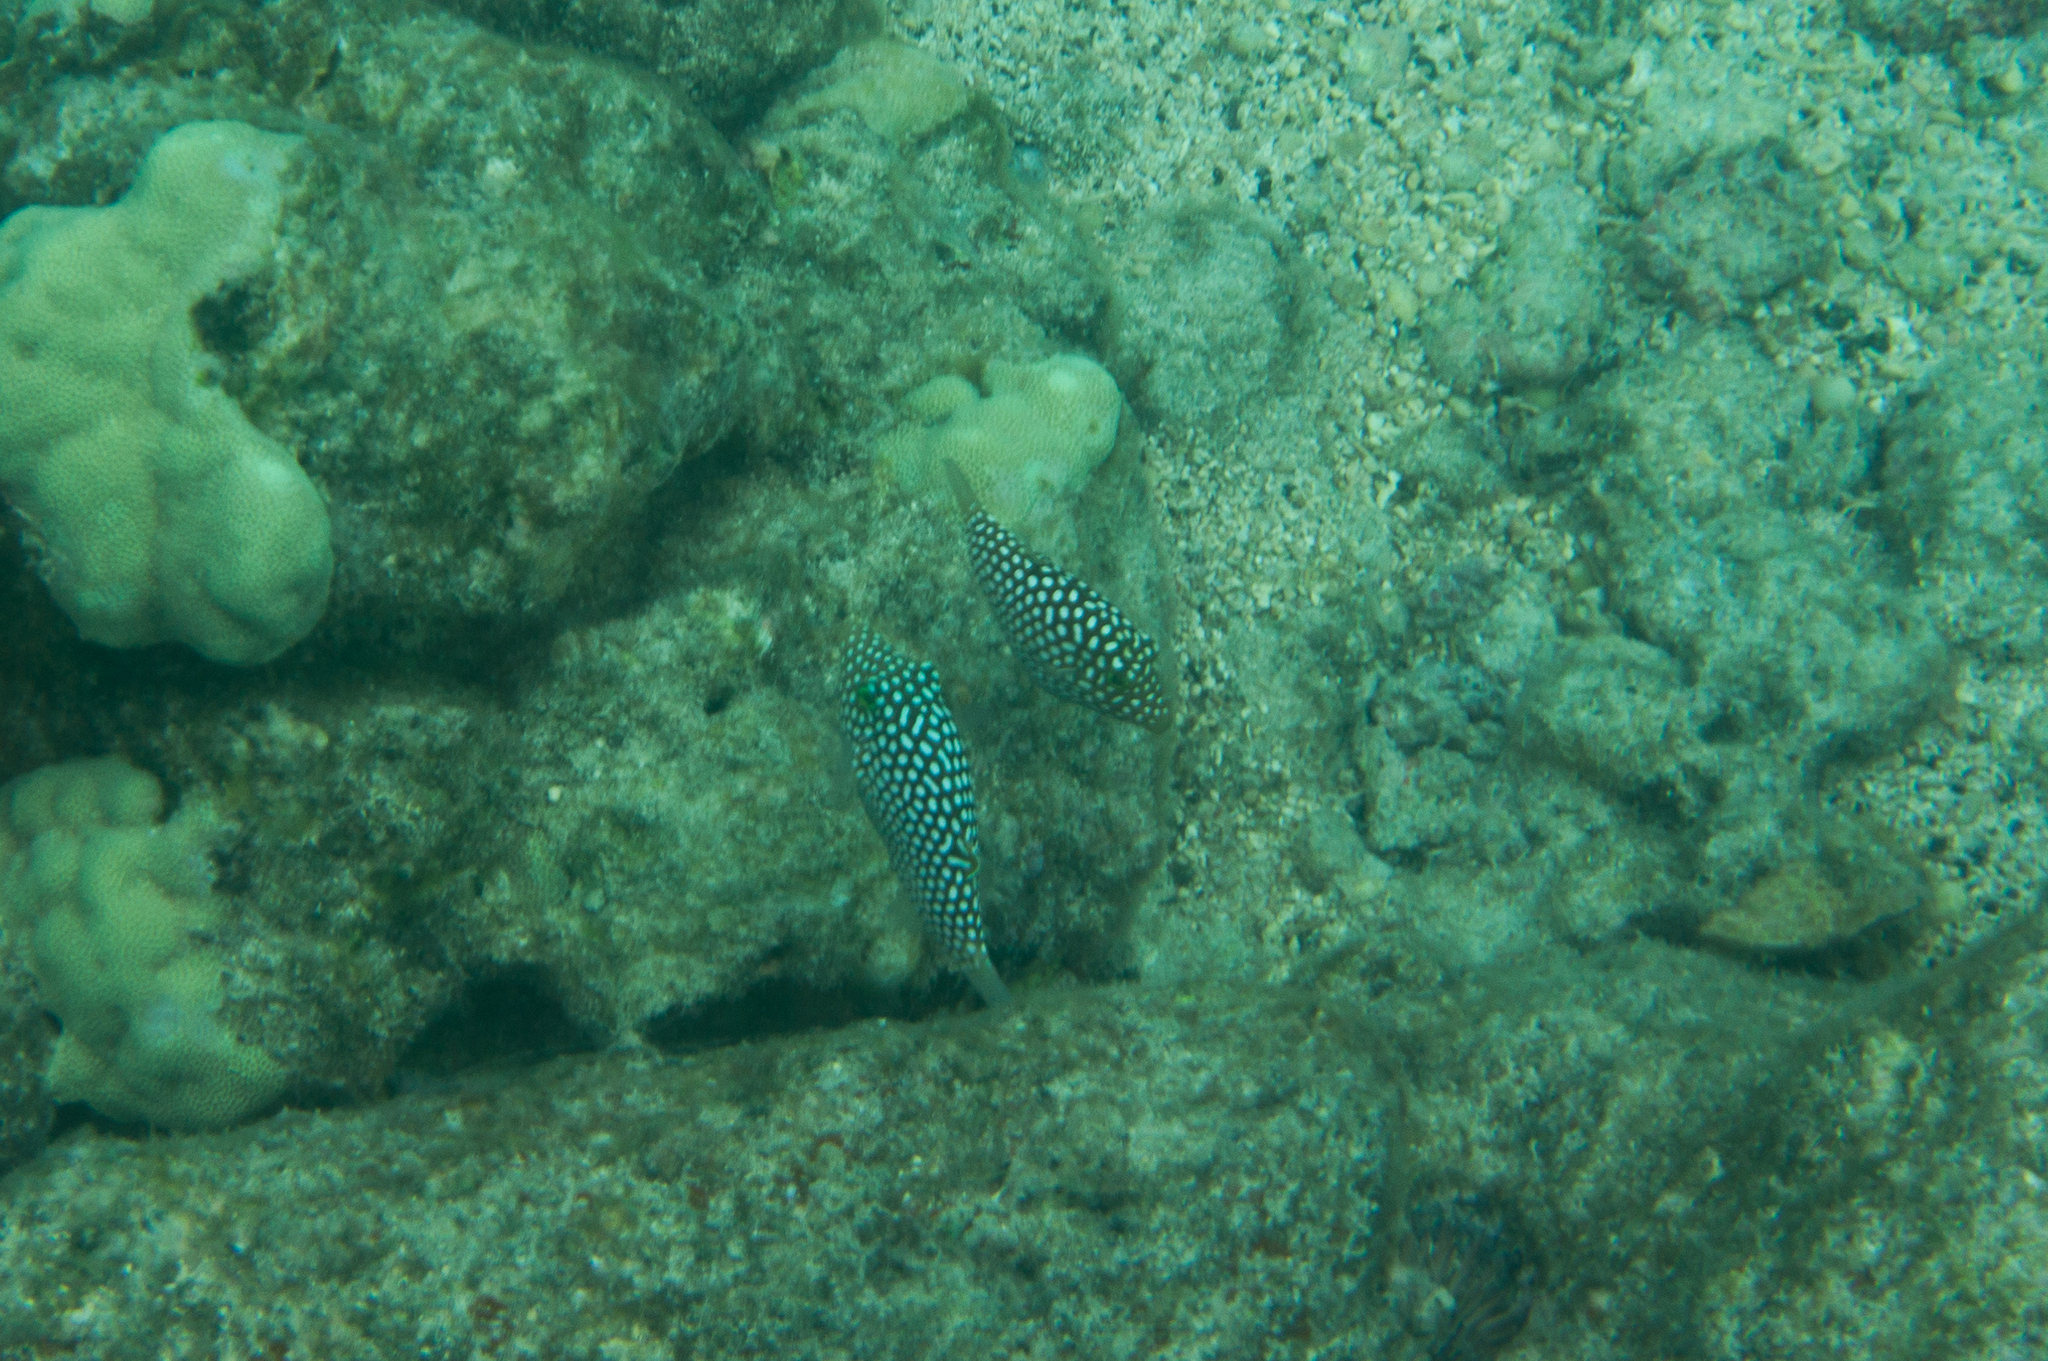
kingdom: Animalia
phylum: Chordata
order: Tetraodontiformes
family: Tetraodontidae
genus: Canthigaster
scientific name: Canthigaster jactator
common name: Hawaiian whitespotted toby
